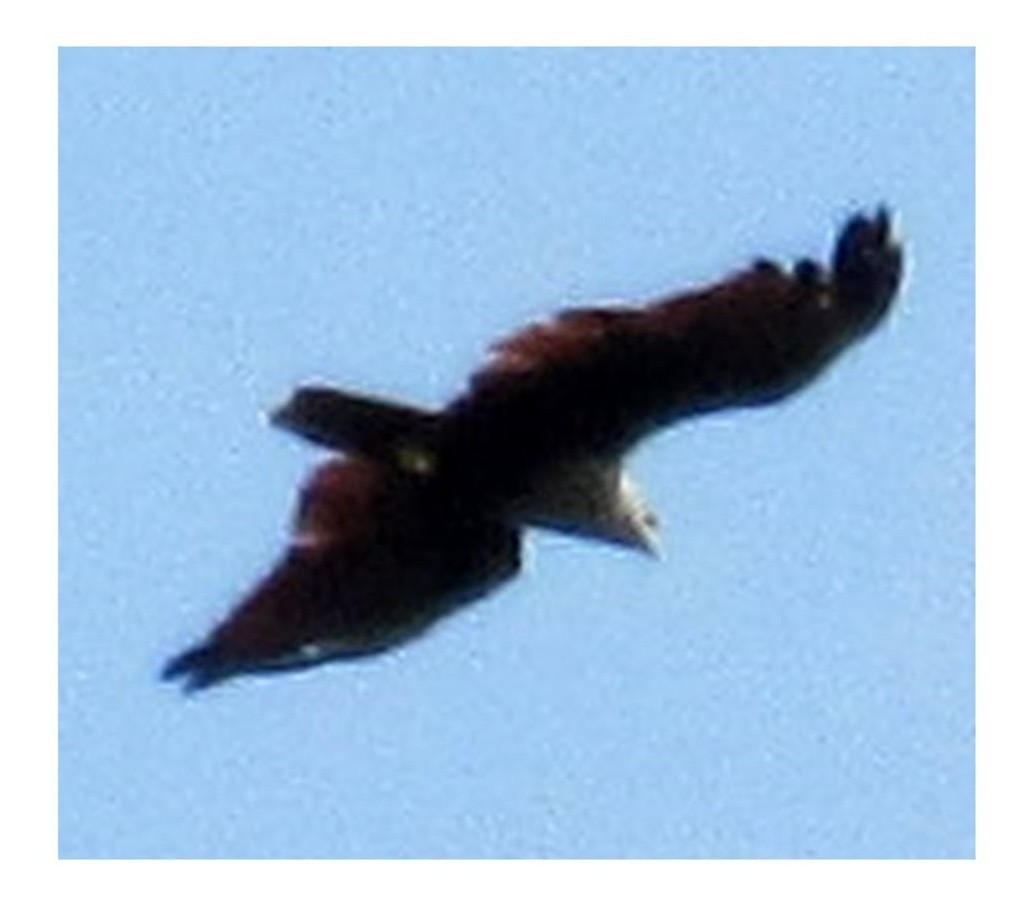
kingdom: Animalia
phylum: Chordata
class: Aves
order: Accipitriformes
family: Accipitridae
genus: Haliastur
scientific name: Haliastur indus
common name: Brahminy kite
